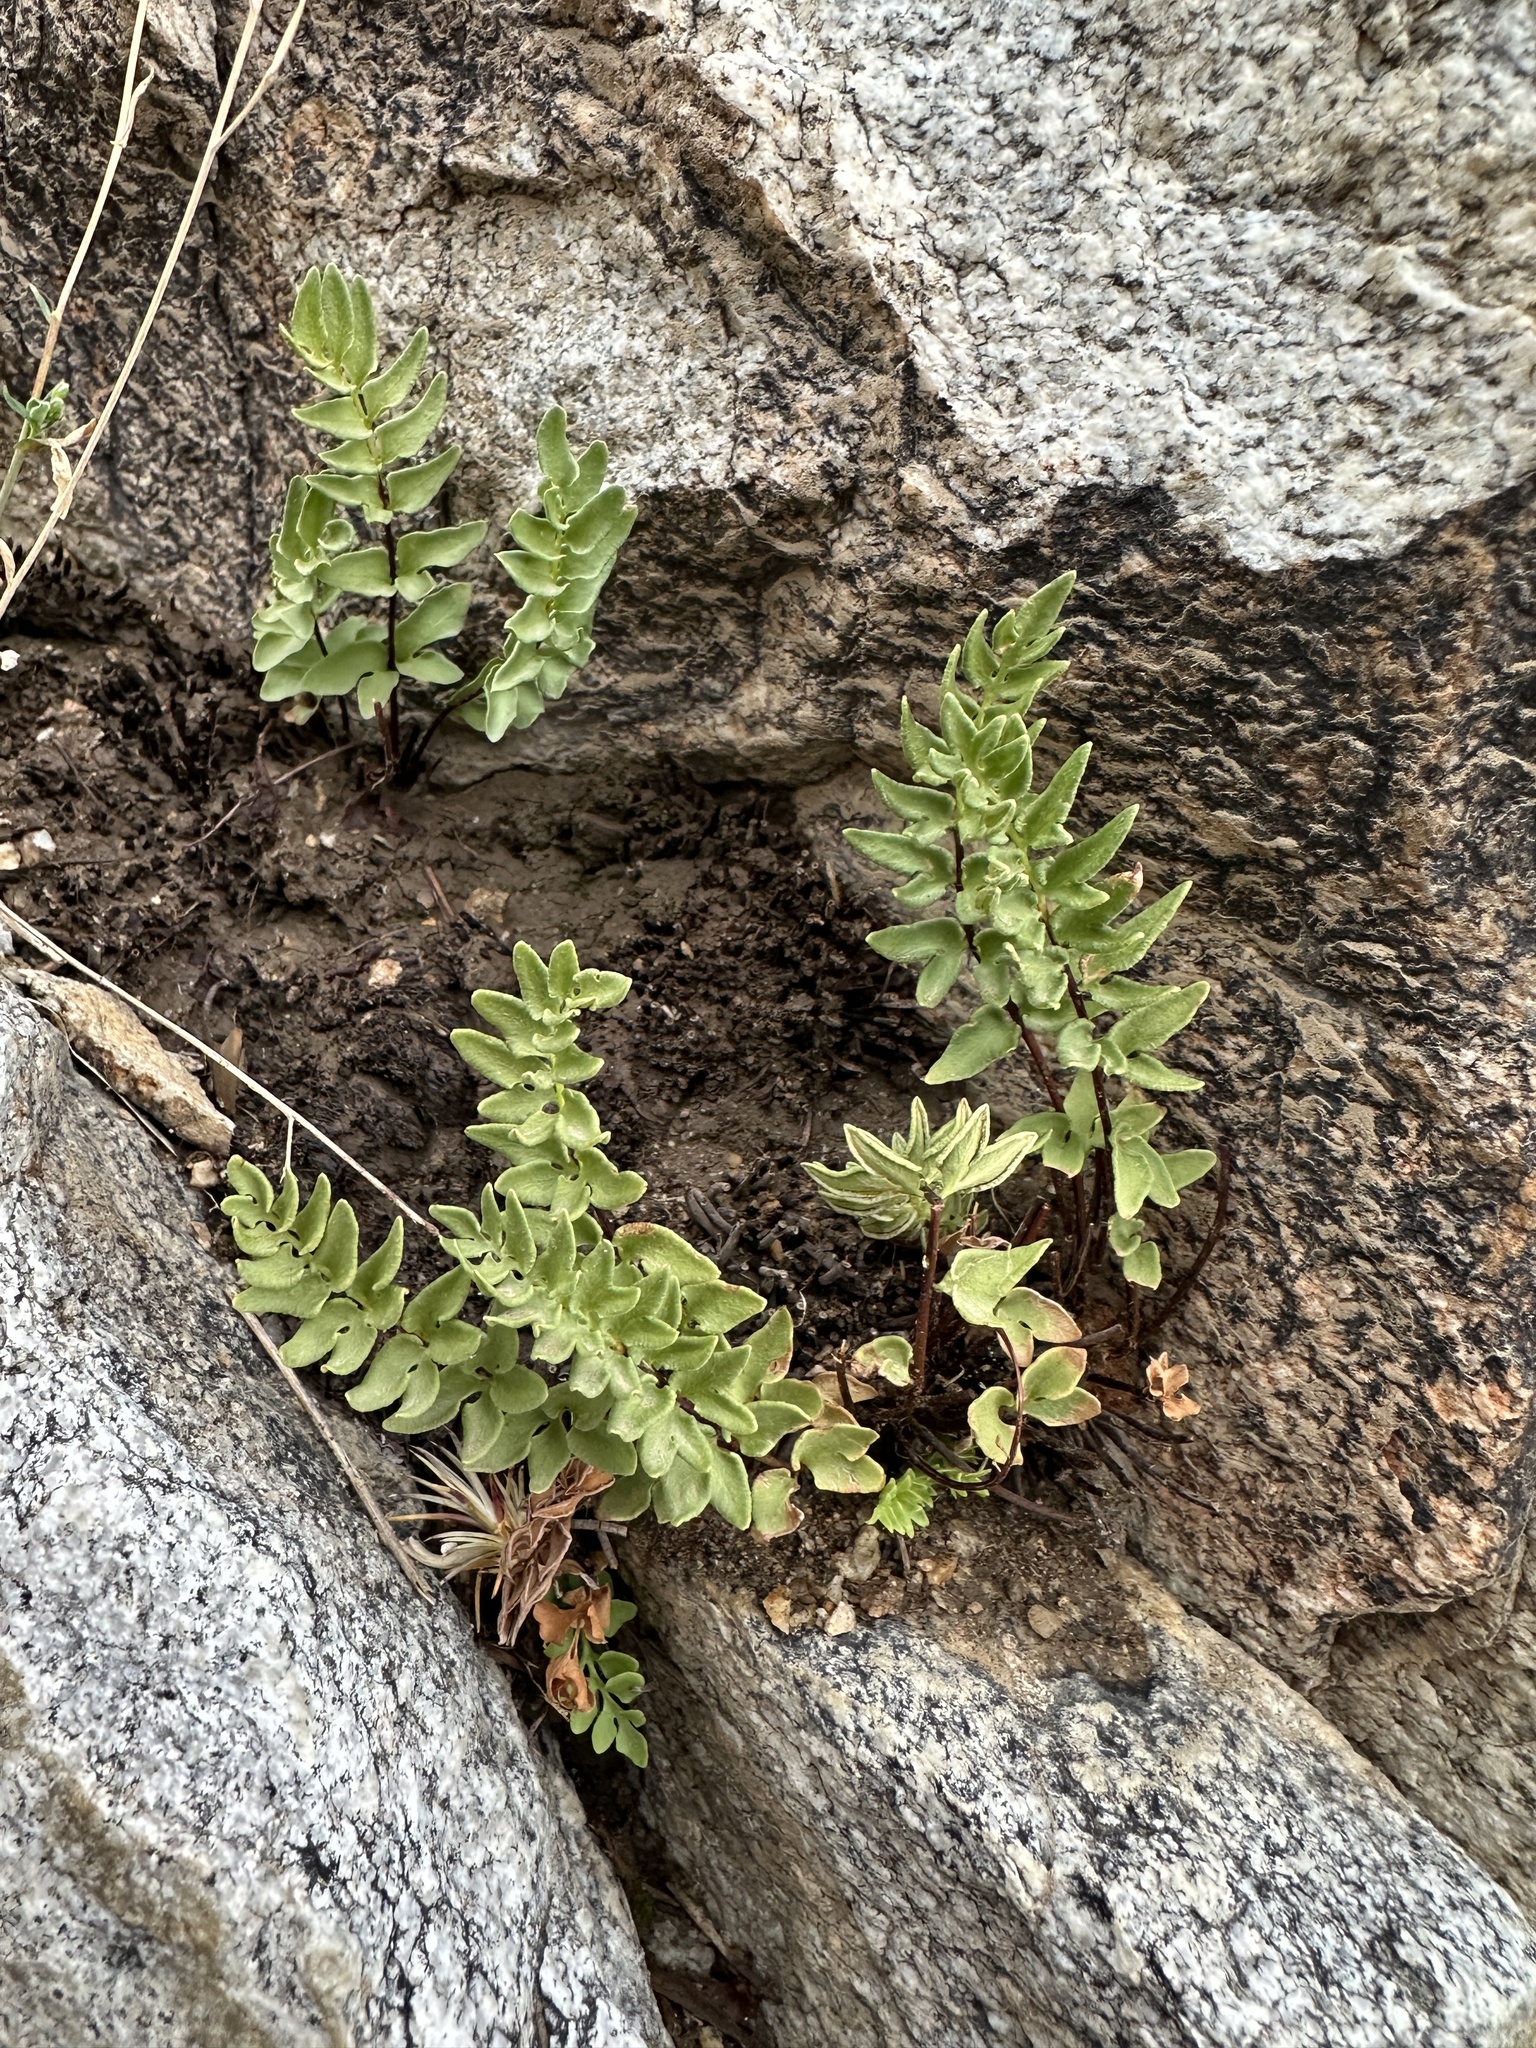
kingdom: Plantae
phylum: Tracheophyta
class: Polypodiopsida
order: Polypodiales
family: Pteridaceae
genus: Pellaea
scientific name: Pellaea breweri
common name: Brewer's cliffbrake
